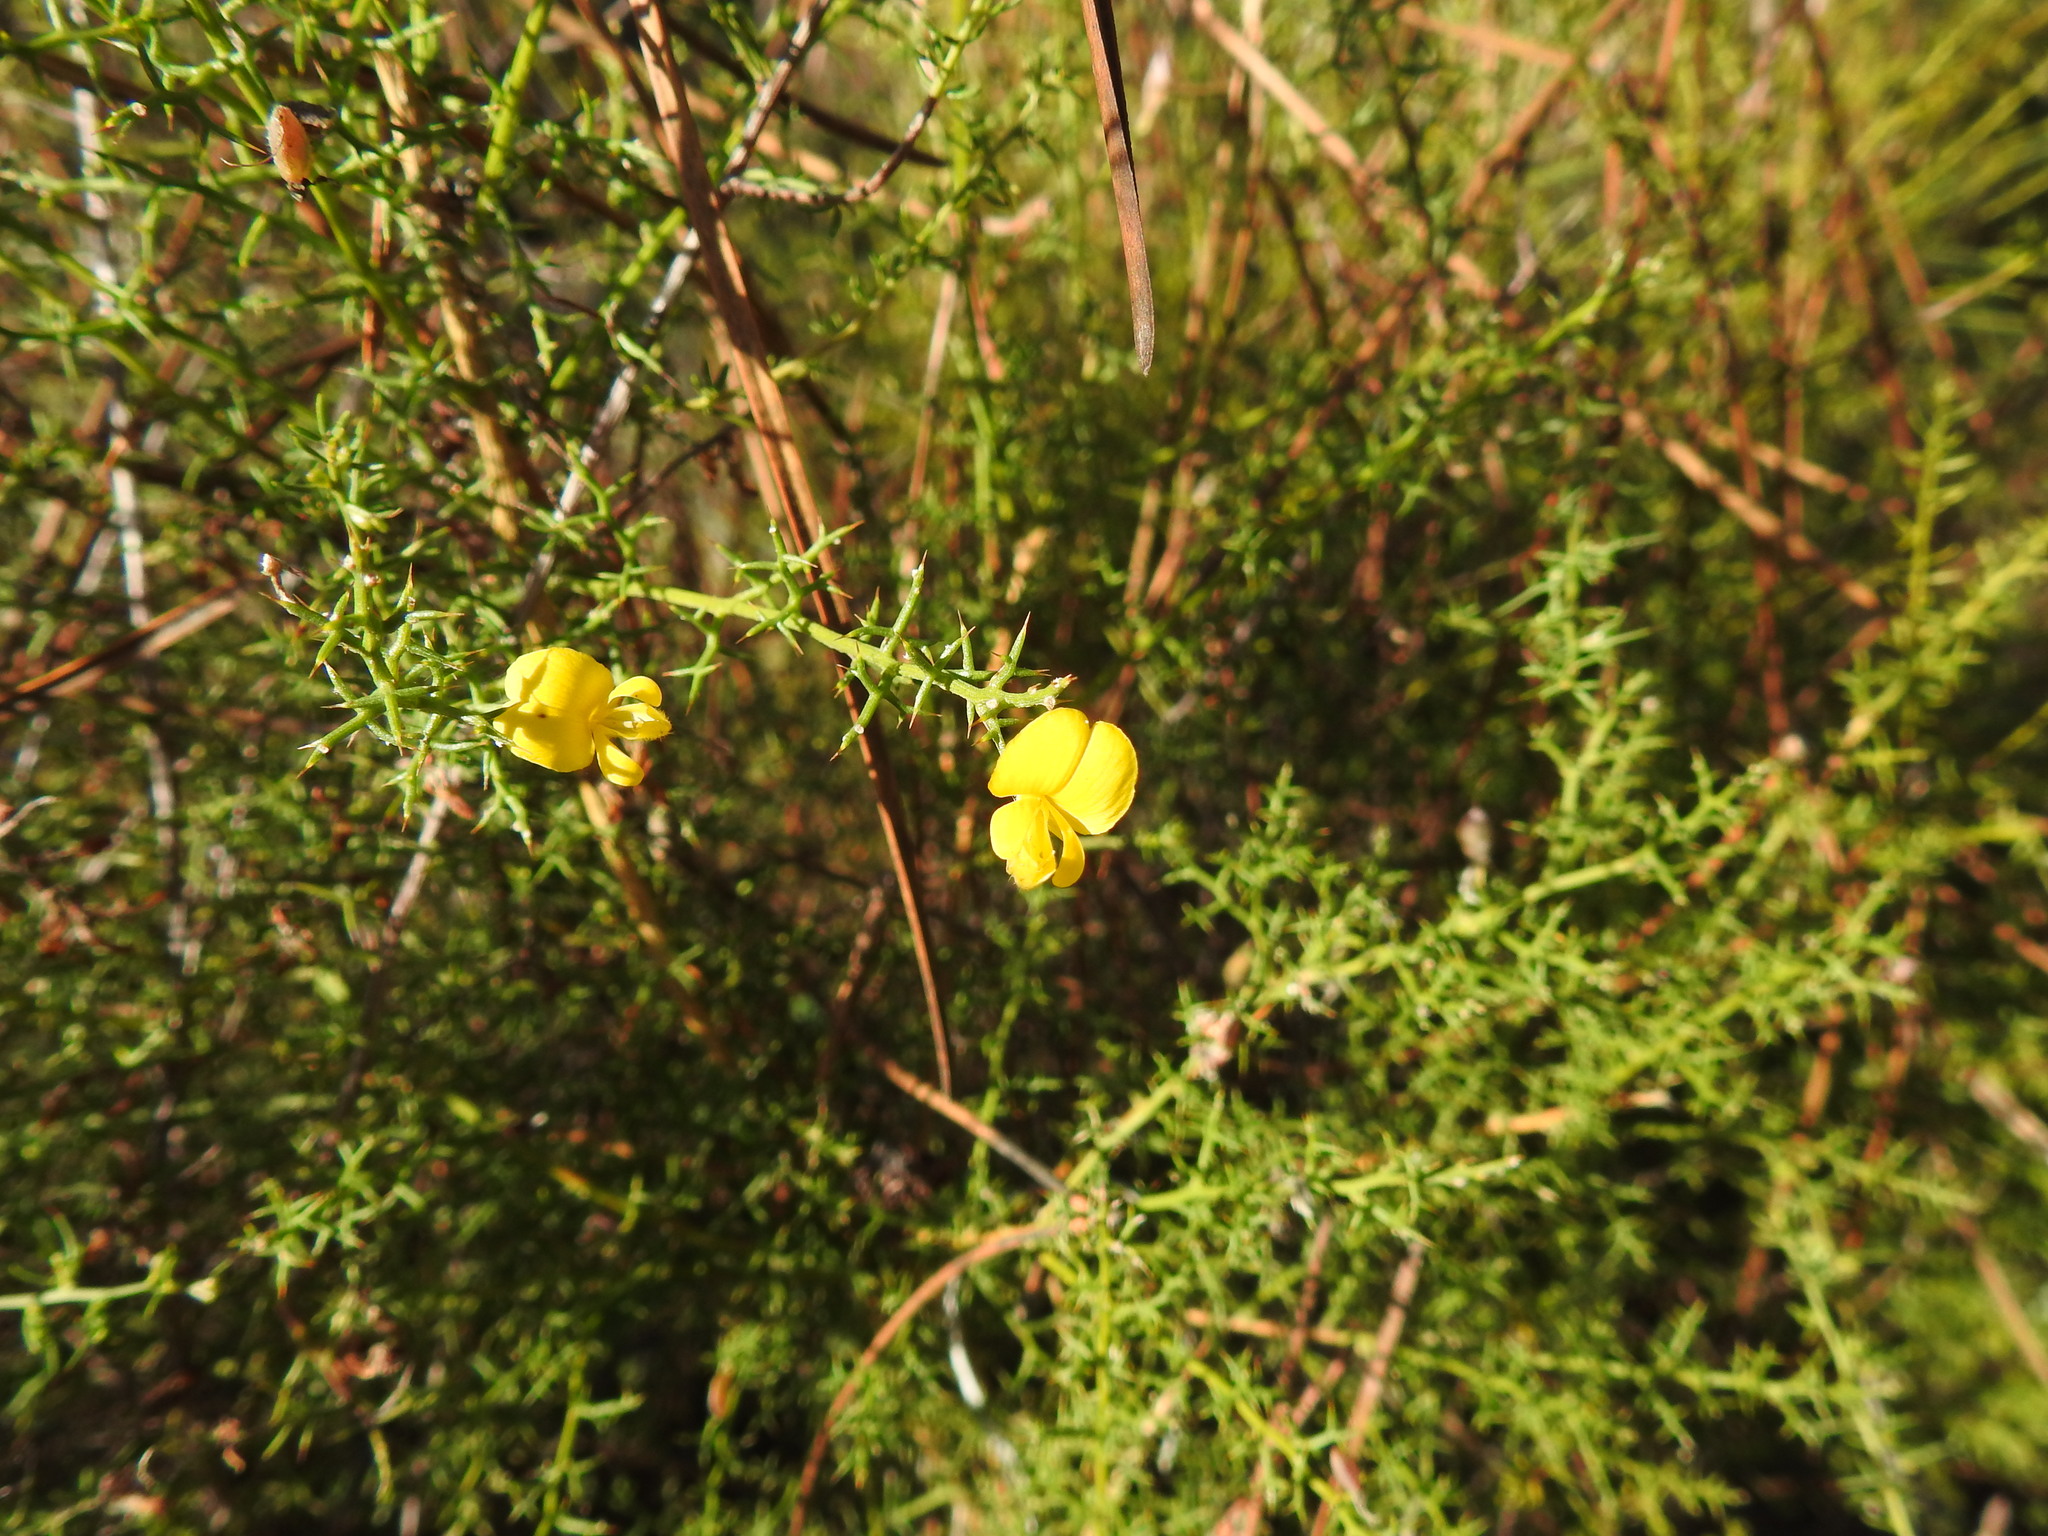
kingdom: Plantae
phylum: Tracheophyta
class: Magnoliopsida
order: Fabales
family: Fabaceae
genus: Stauracanthus
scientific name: Stauracanthus boivinii
